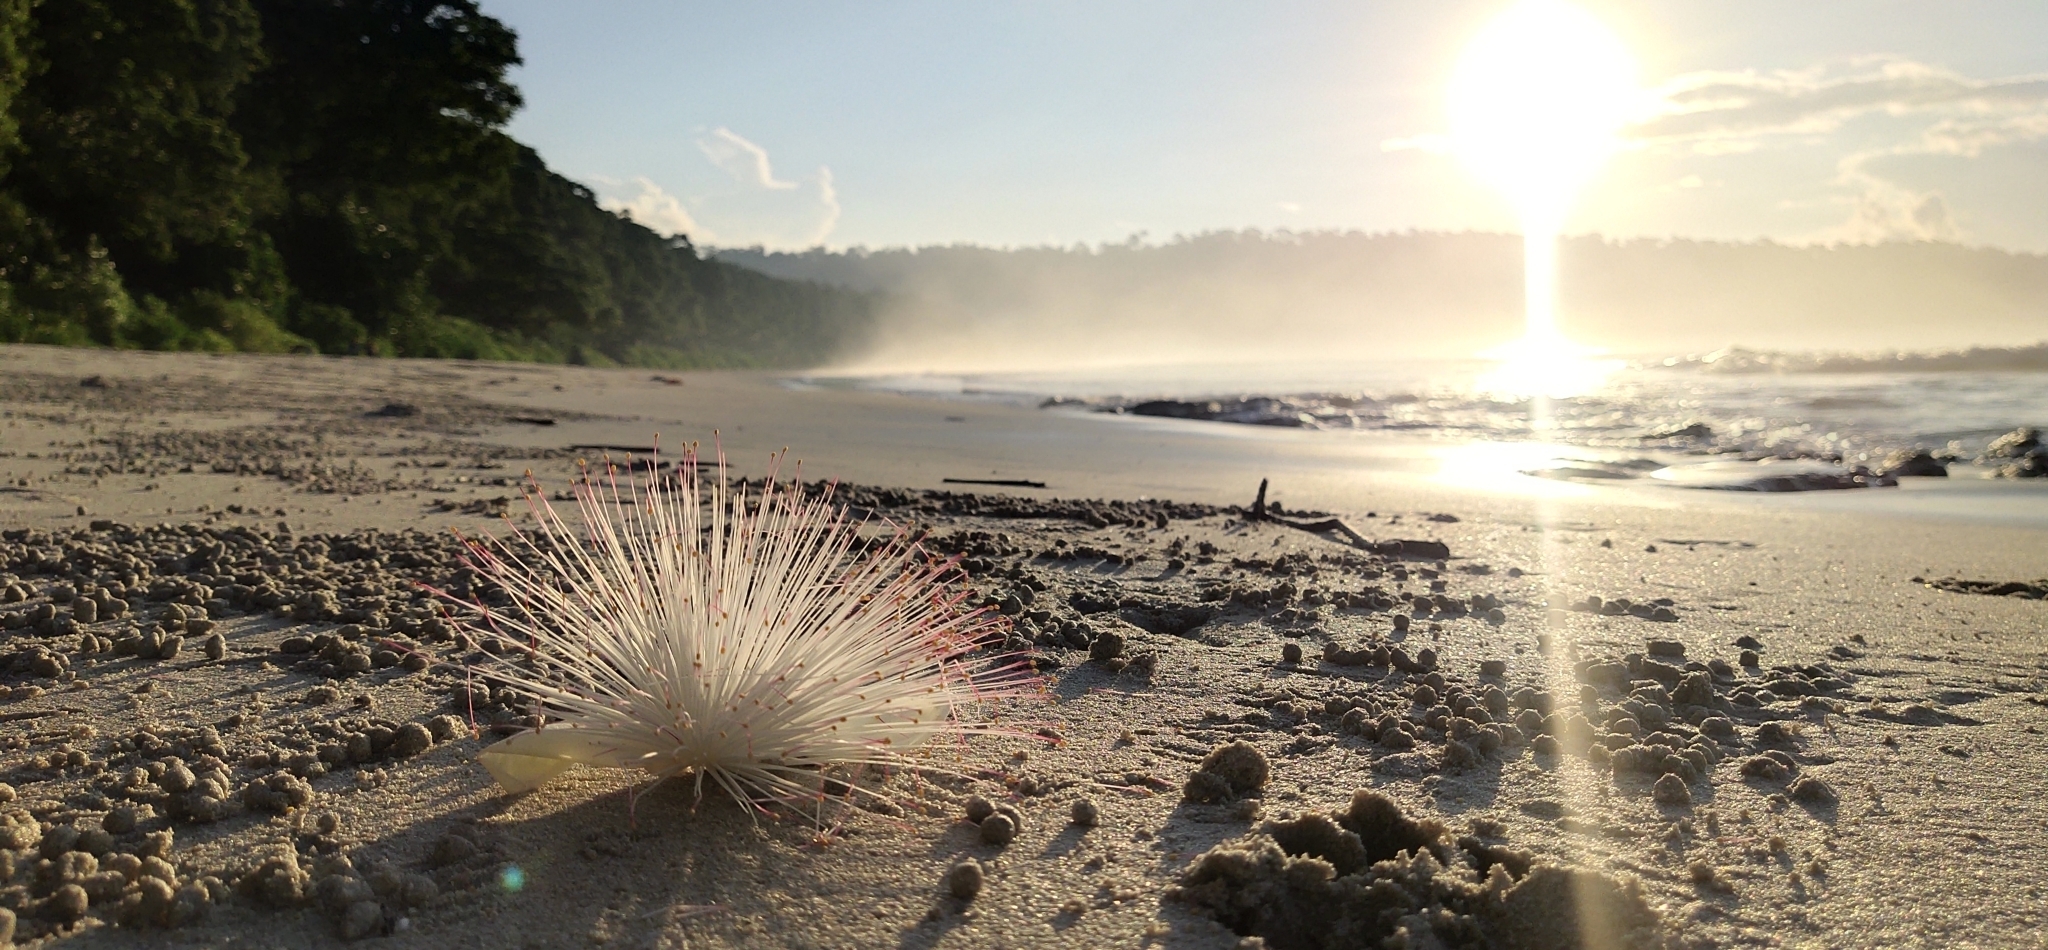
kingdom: Plantae
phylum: Tracheophyta
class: Magnoliopsida
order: Ericales
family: Lecythidaceae
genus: Barringtonia
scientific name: Barringtonia asiatica
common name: Mango-pine
